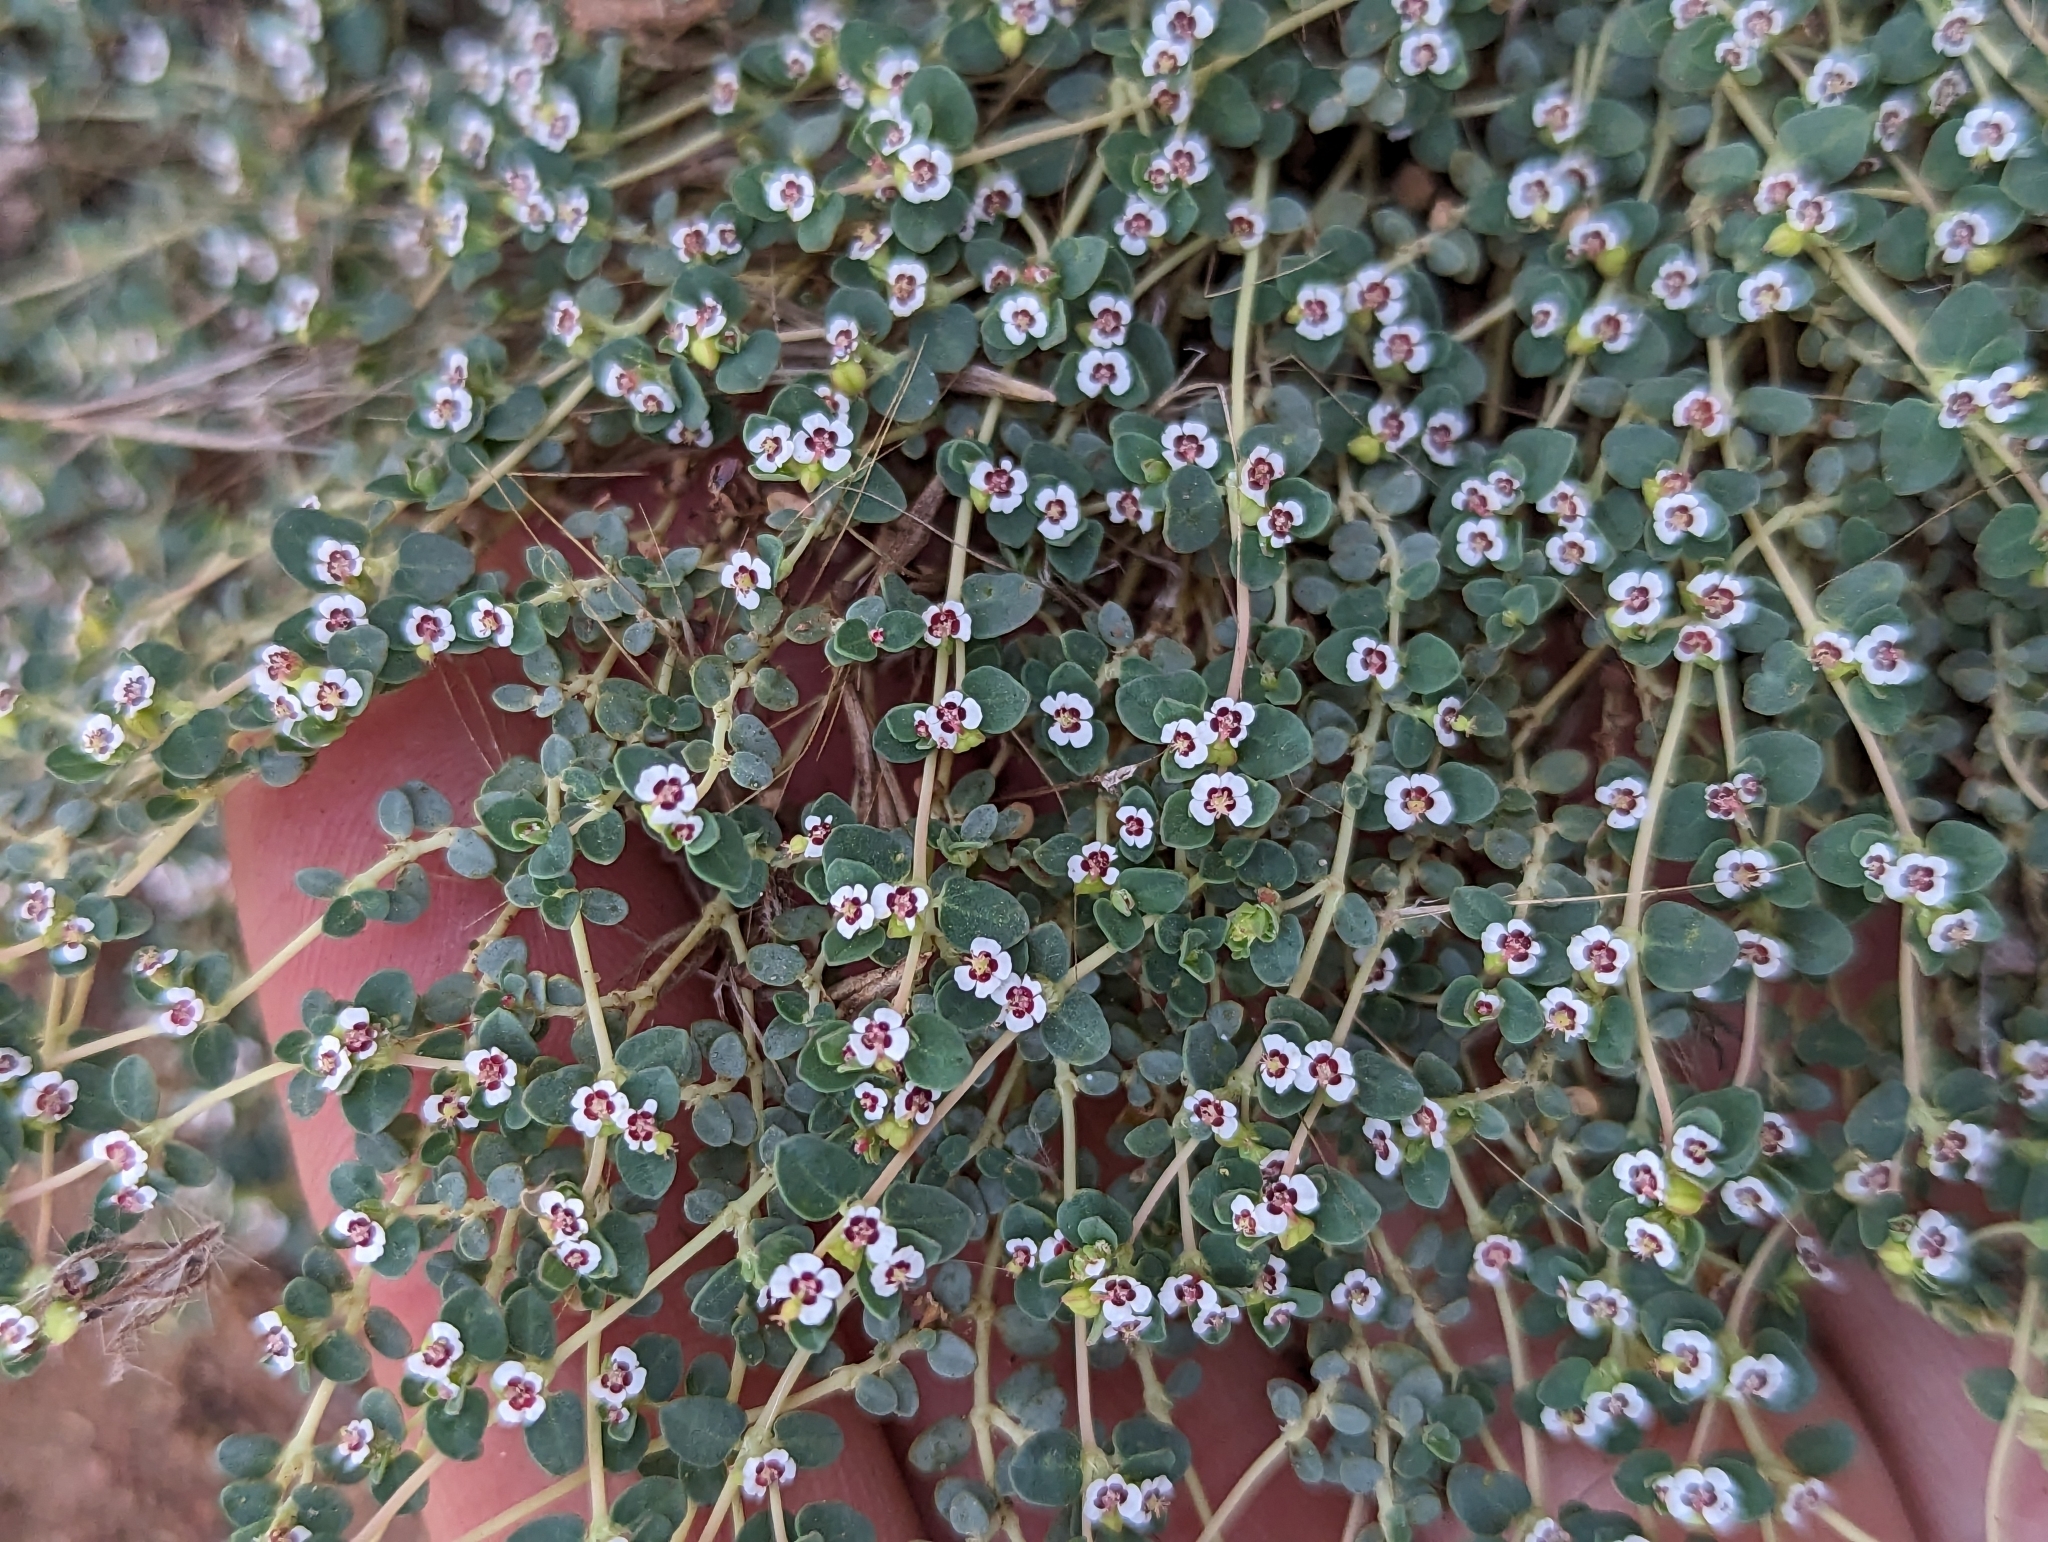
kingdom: Plantae
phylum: Tracheophyta
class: Magnoliopsida
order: Malpighiales
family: Euphorbiaceae
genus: Euphorbia
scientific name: Euphorbia polycarpa
